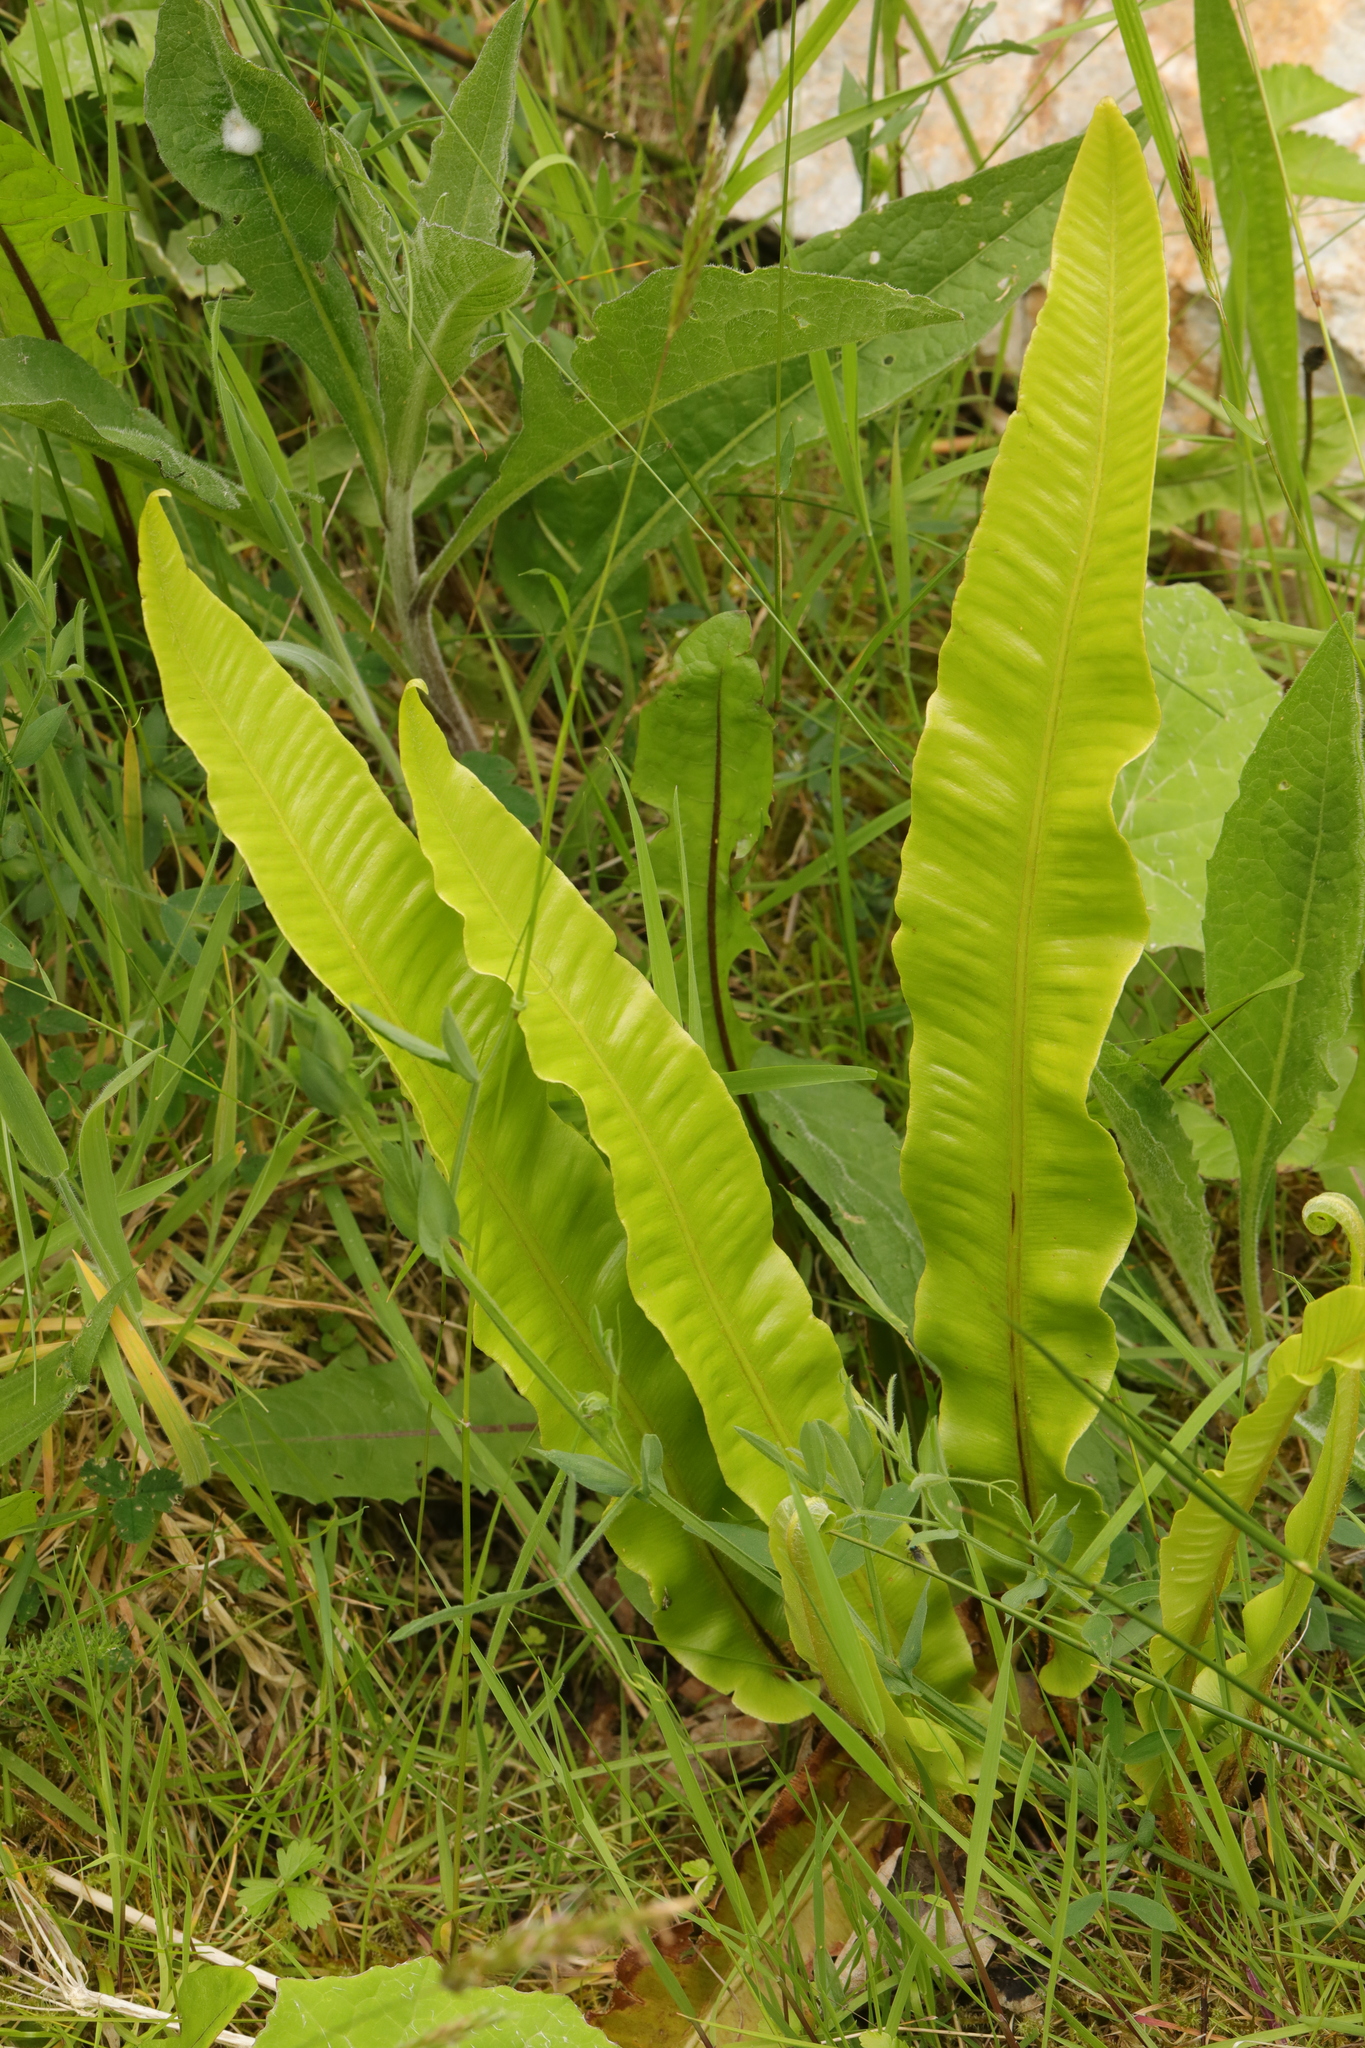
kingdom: Plantae
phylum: Tracheophyta
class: Polypodiopsida
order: Polypodiales
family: Aspleniaceae
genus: Asplenium
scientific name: Asplenium scolopendrium
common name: Hart's-tongue fern
